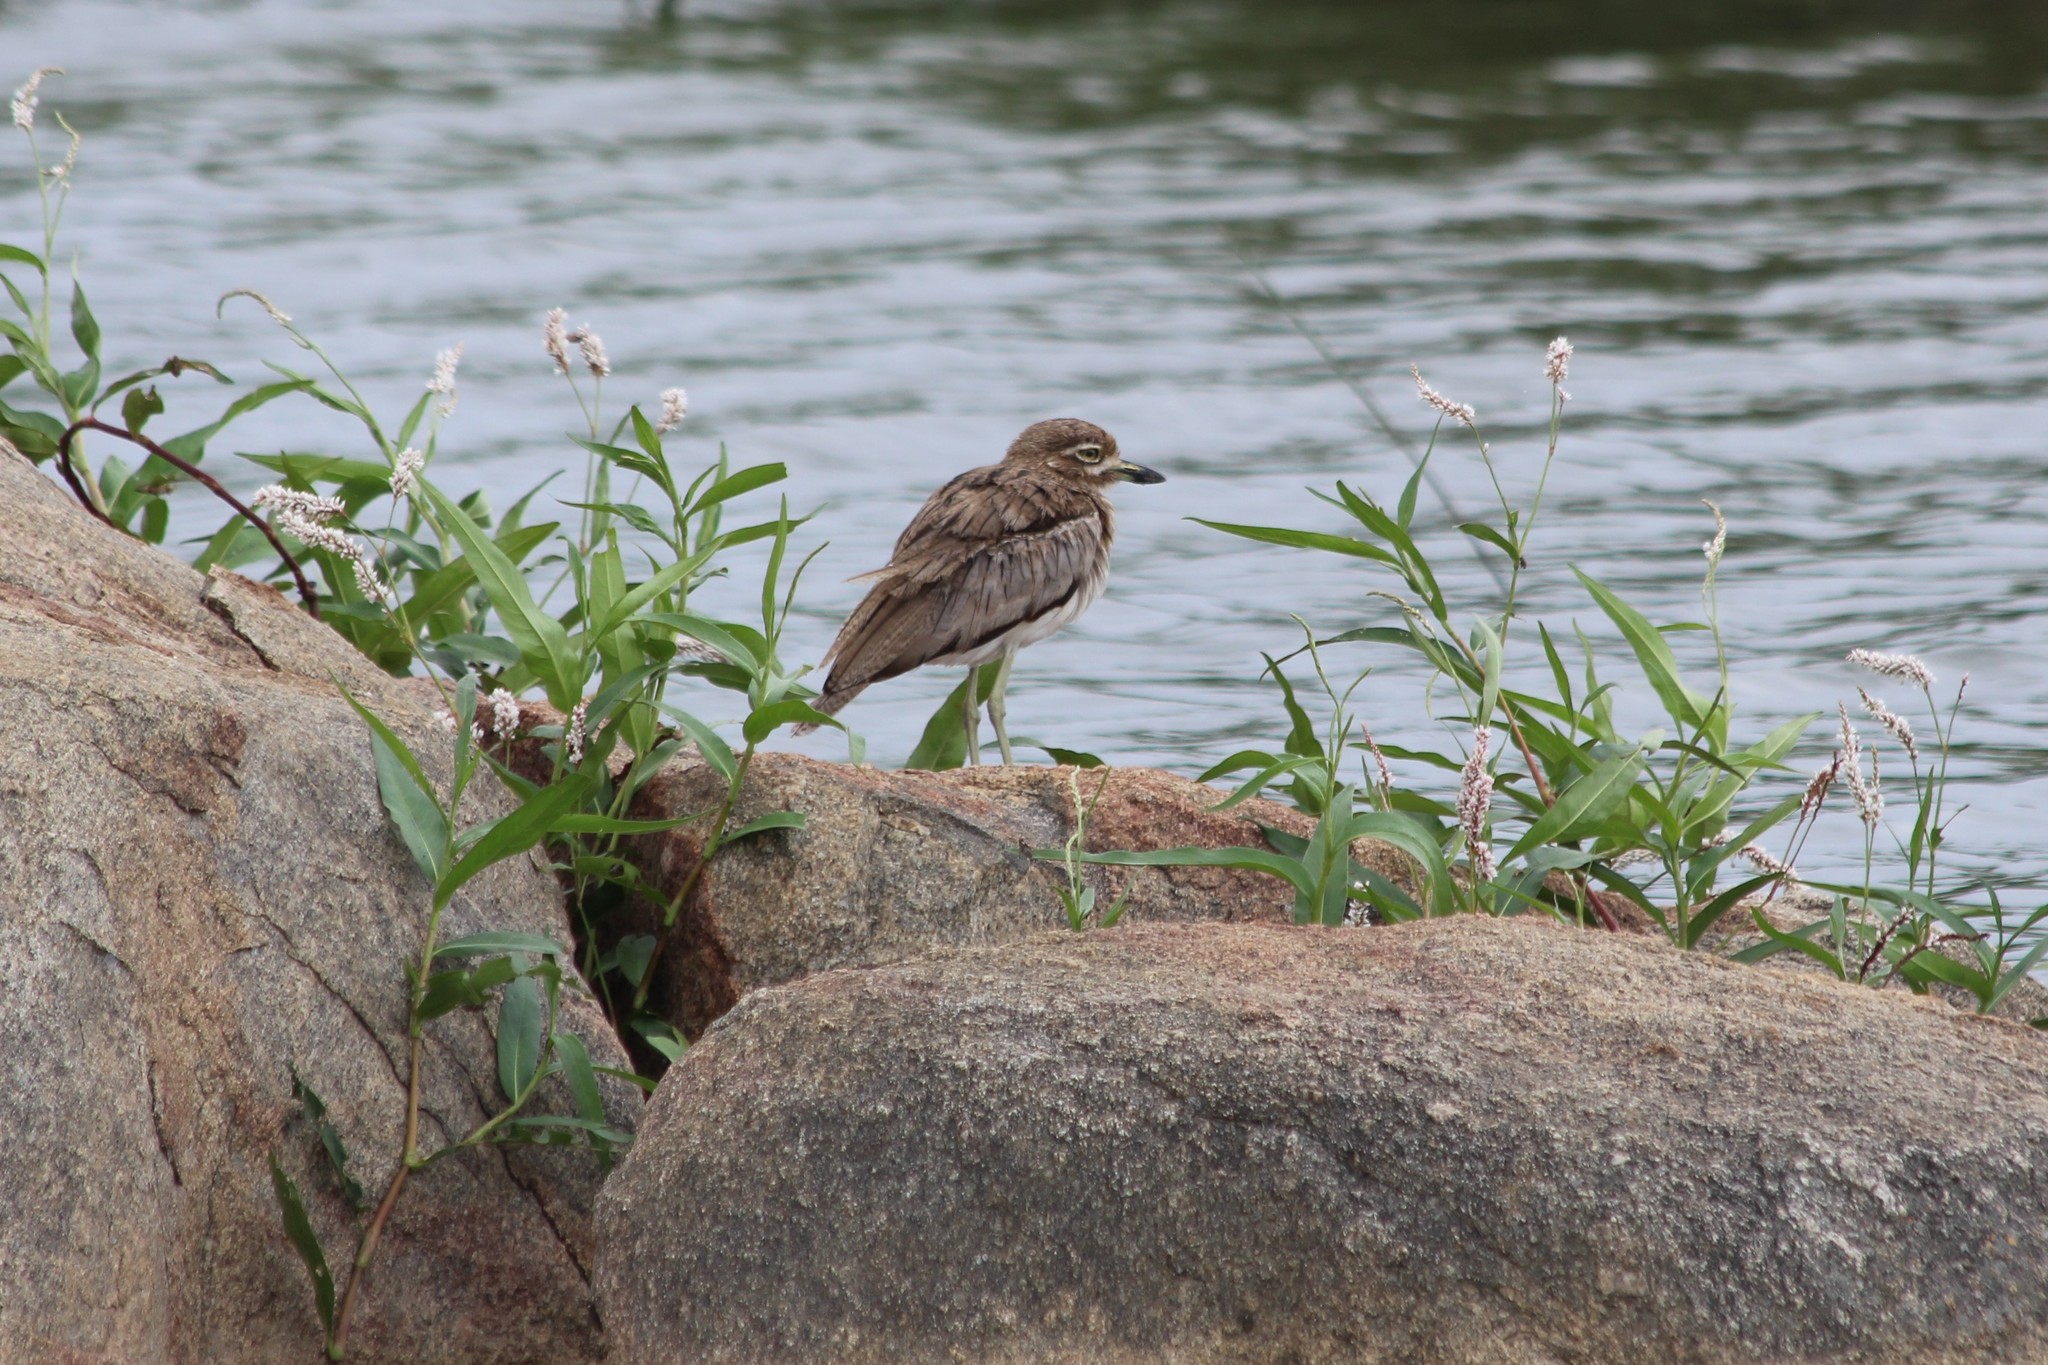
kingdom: Animalia
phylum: Chordata
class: Aves
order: Charadriiformes
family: Burhinidae
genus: Burhinus
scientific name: Burhinus vermiculatus
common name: Water thick-knee
